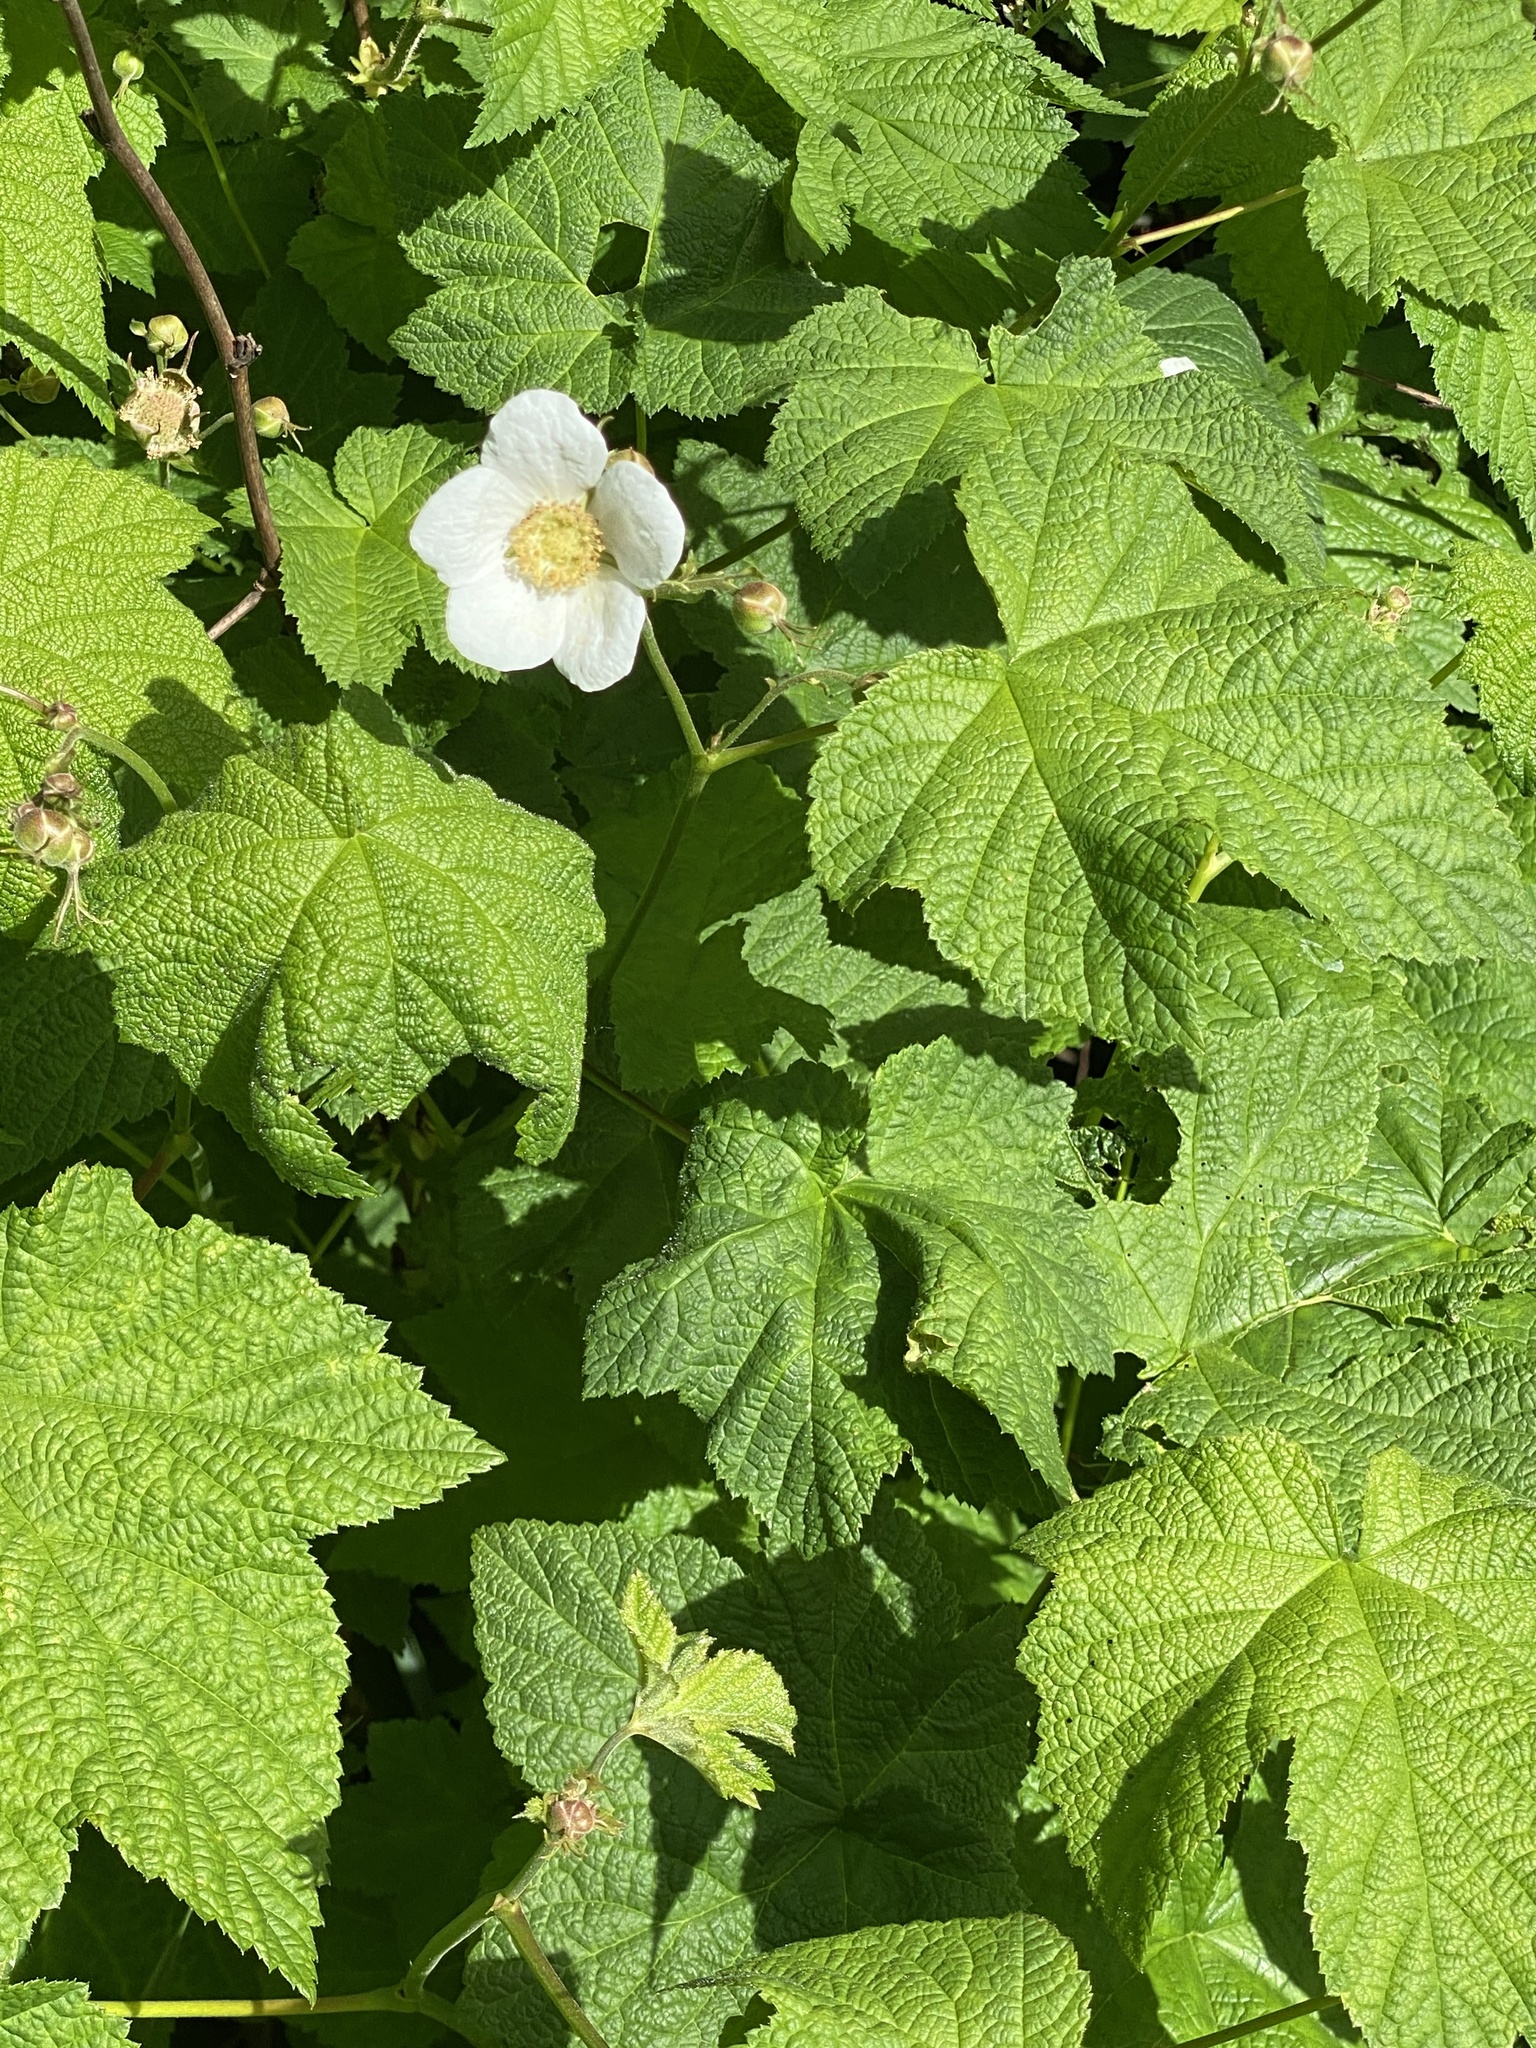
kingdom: Plantae
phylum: Tracheophyta
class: Magnoliopsida
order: Rosales
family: Rosaceae
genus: Rubus
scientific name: Rubus parviflorus
